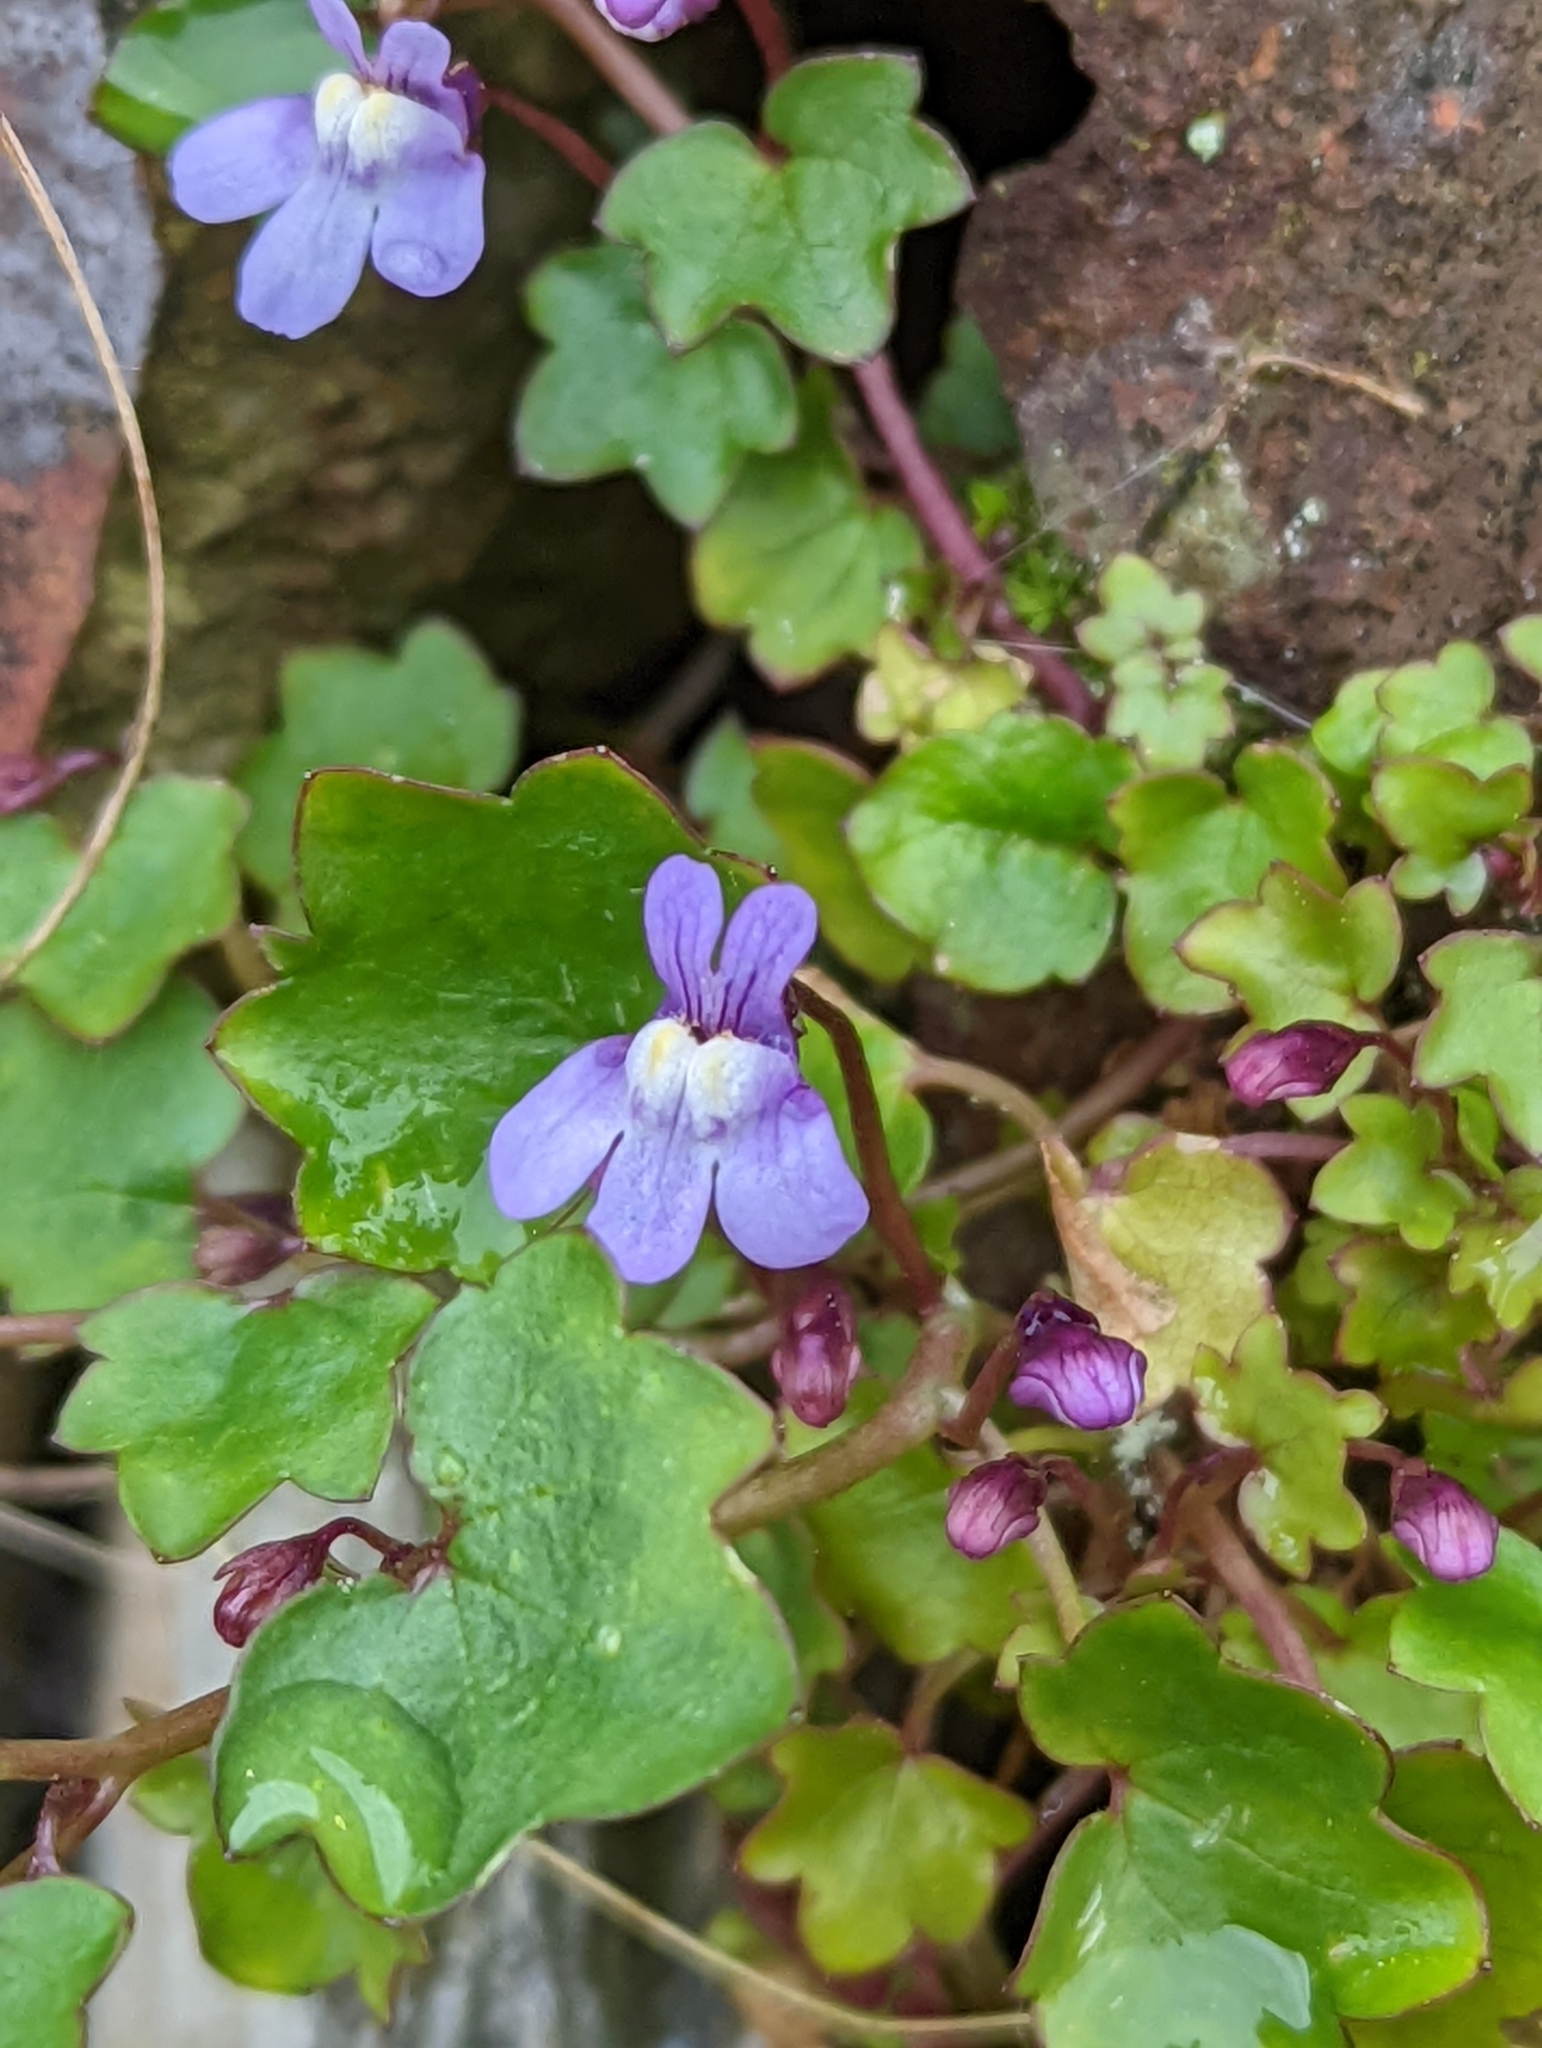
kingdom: Plantae
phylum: Tracheophyta
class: Magnoliopsida
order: Lamiales
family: Plantaginaceae
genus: Cymbalaria
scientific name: Cymbalaria muralis
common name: Ivy-leaved toadflax
